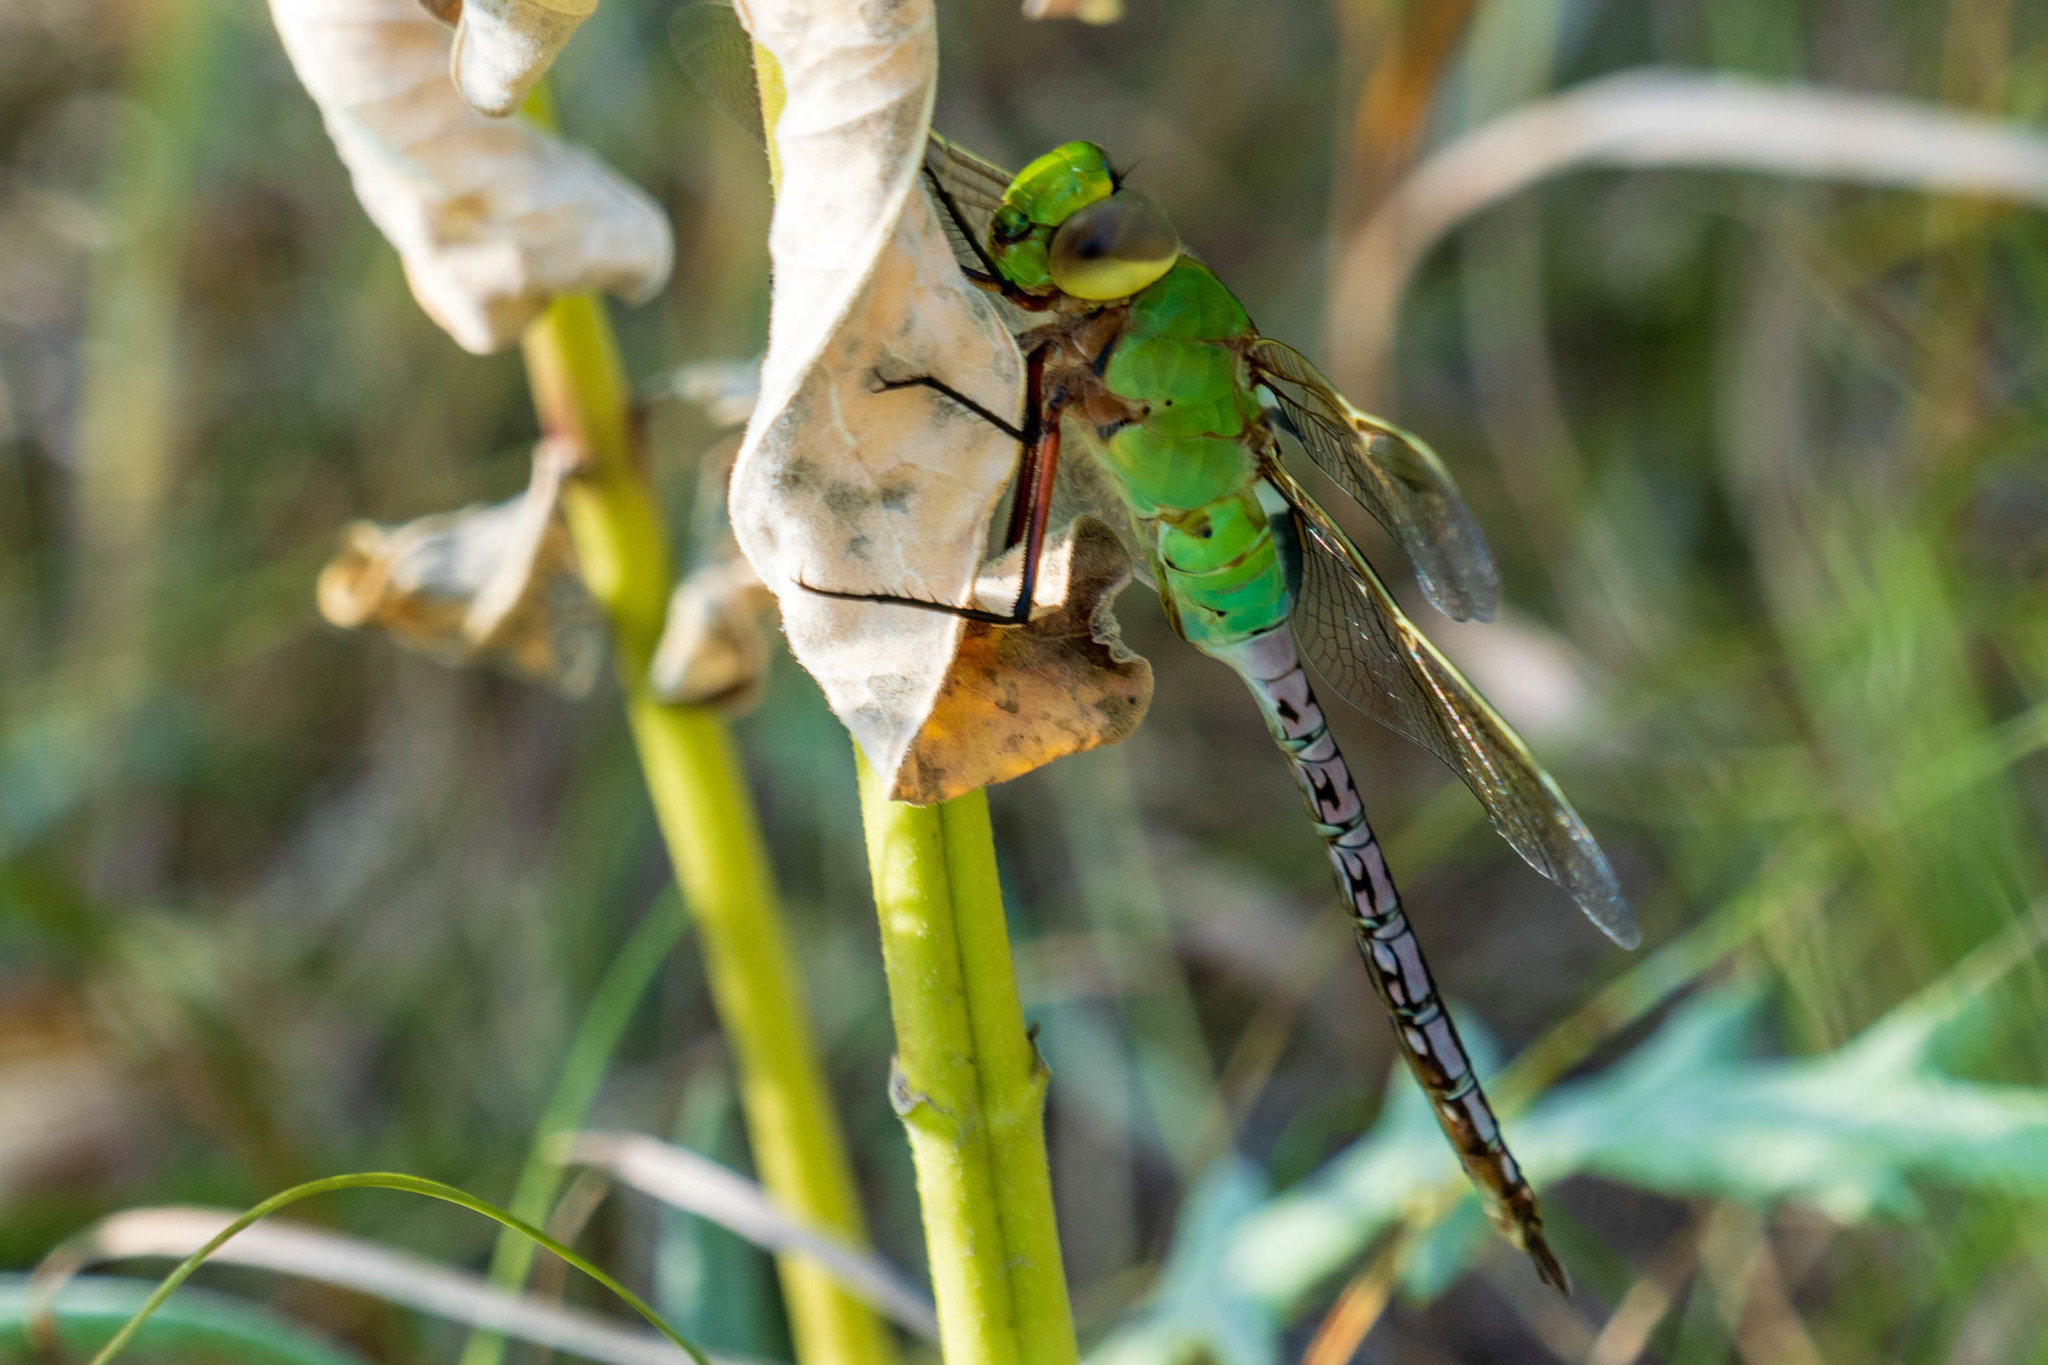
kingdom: Animalia
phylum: Arthropoda
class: Insecta
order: Odonata
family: Aeshnidae
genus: Anax
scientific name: Anax junius
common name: Common green darner
